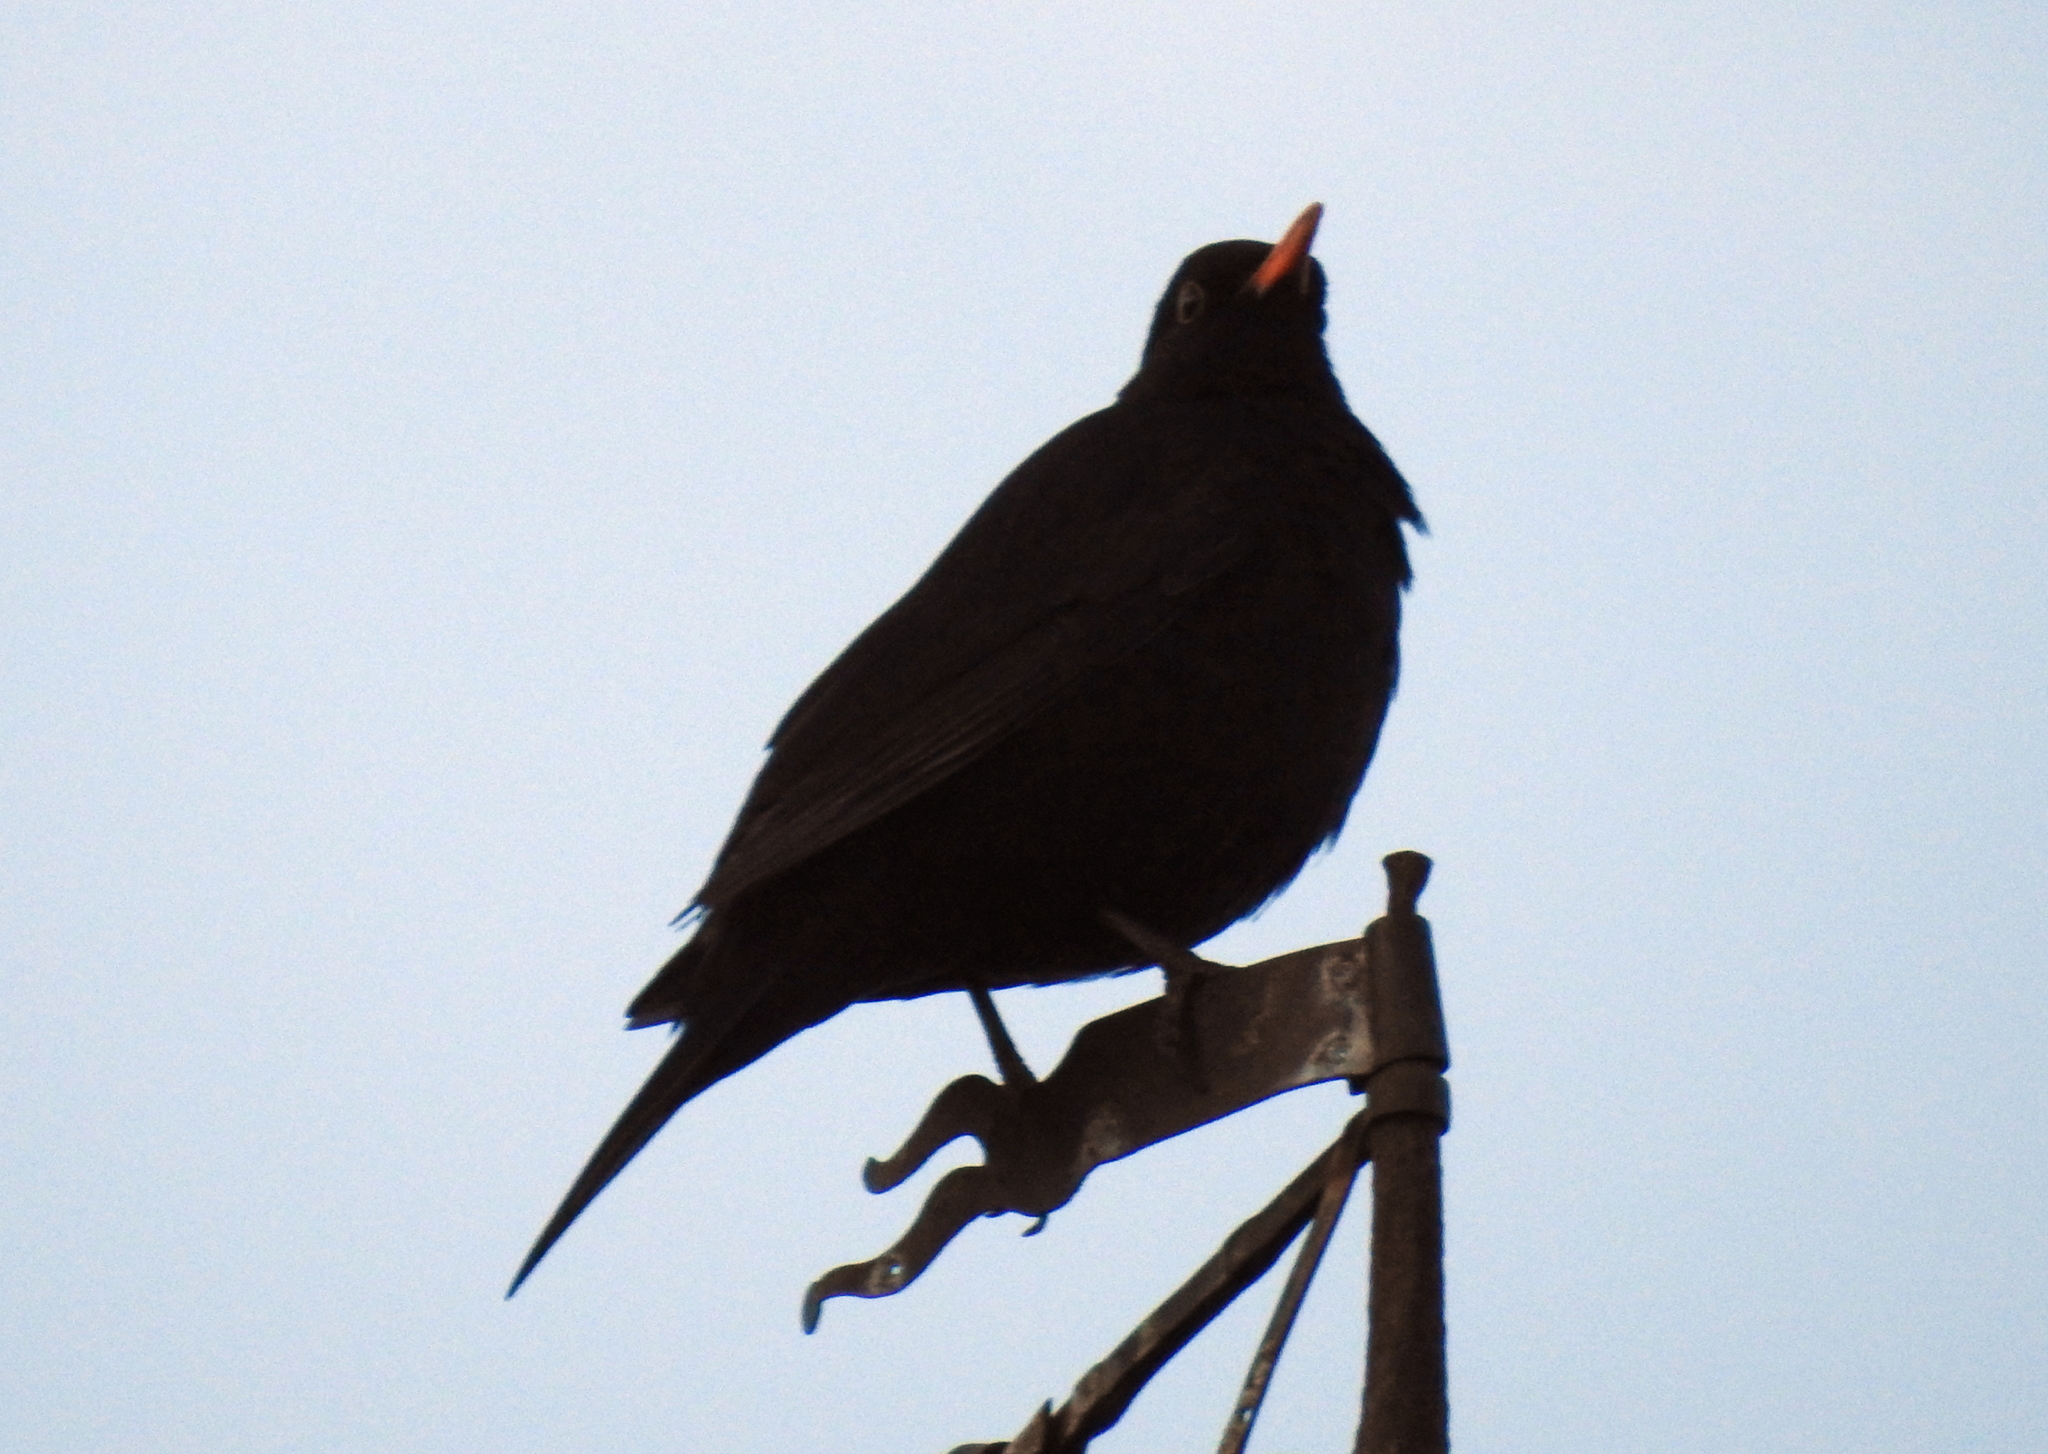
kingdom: Animalia
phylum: Chordata
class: Aves
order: Passeriformes
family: Turdidae
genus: Turdus
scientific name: Turdus merula
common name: Common blackbird
